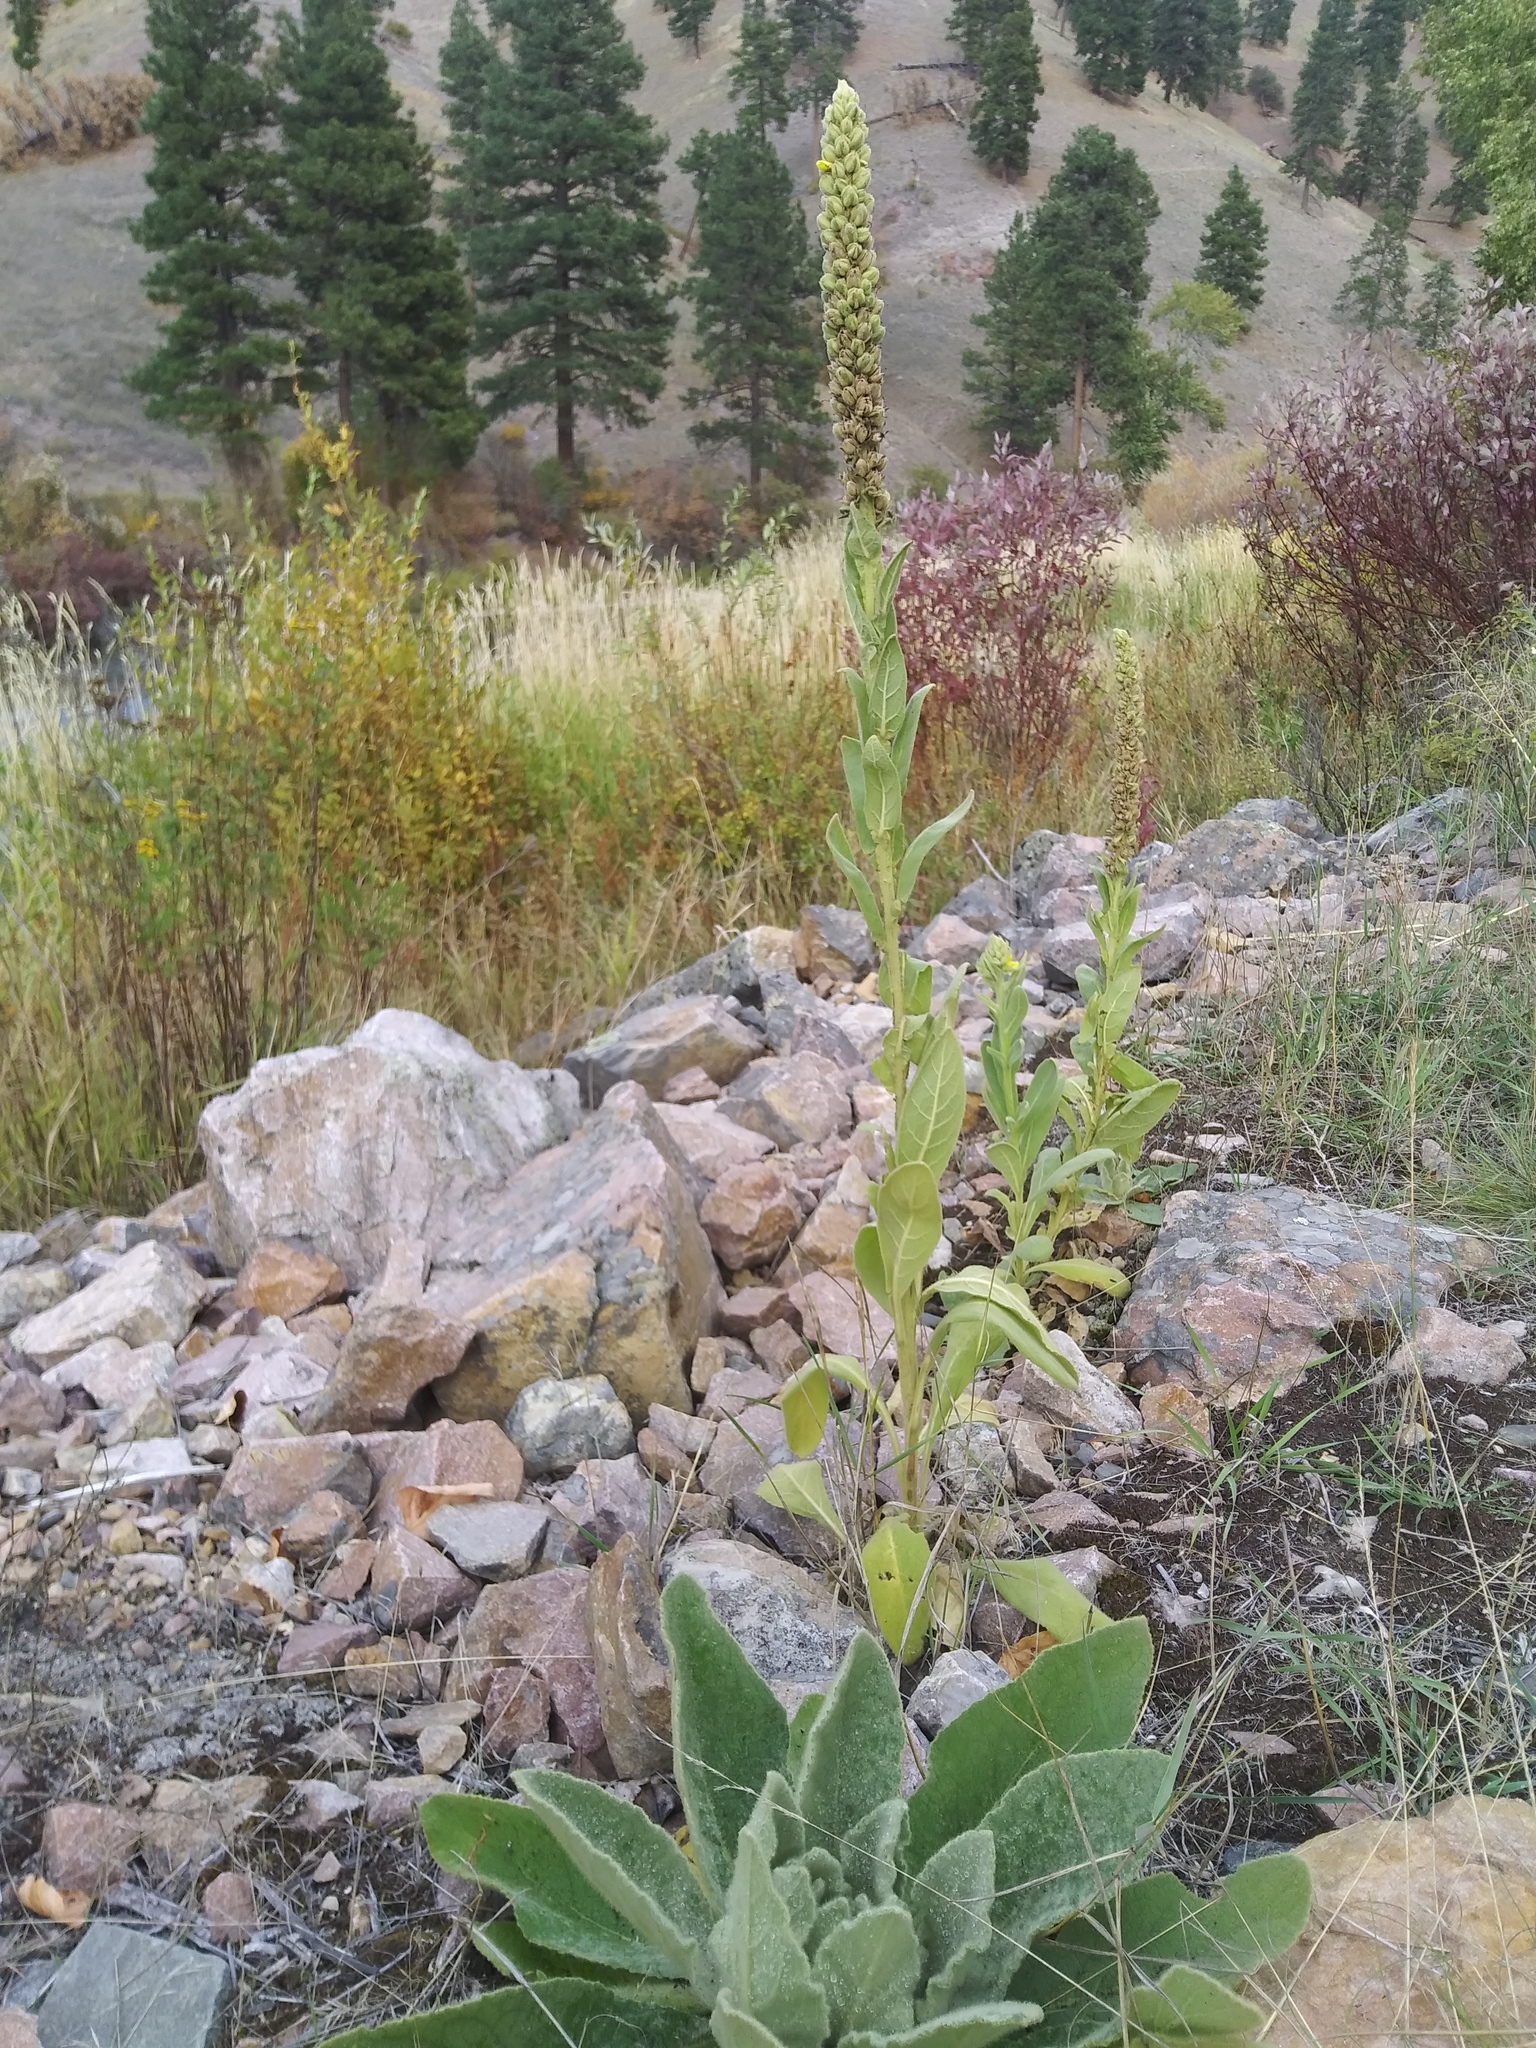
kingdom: Plantae
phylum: Tracheophyta
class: Magnoliopsida
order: Lamiales
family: Scrophulariaceae
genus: Verbascum
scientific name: Verbascum thapsus
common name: Common mullein
